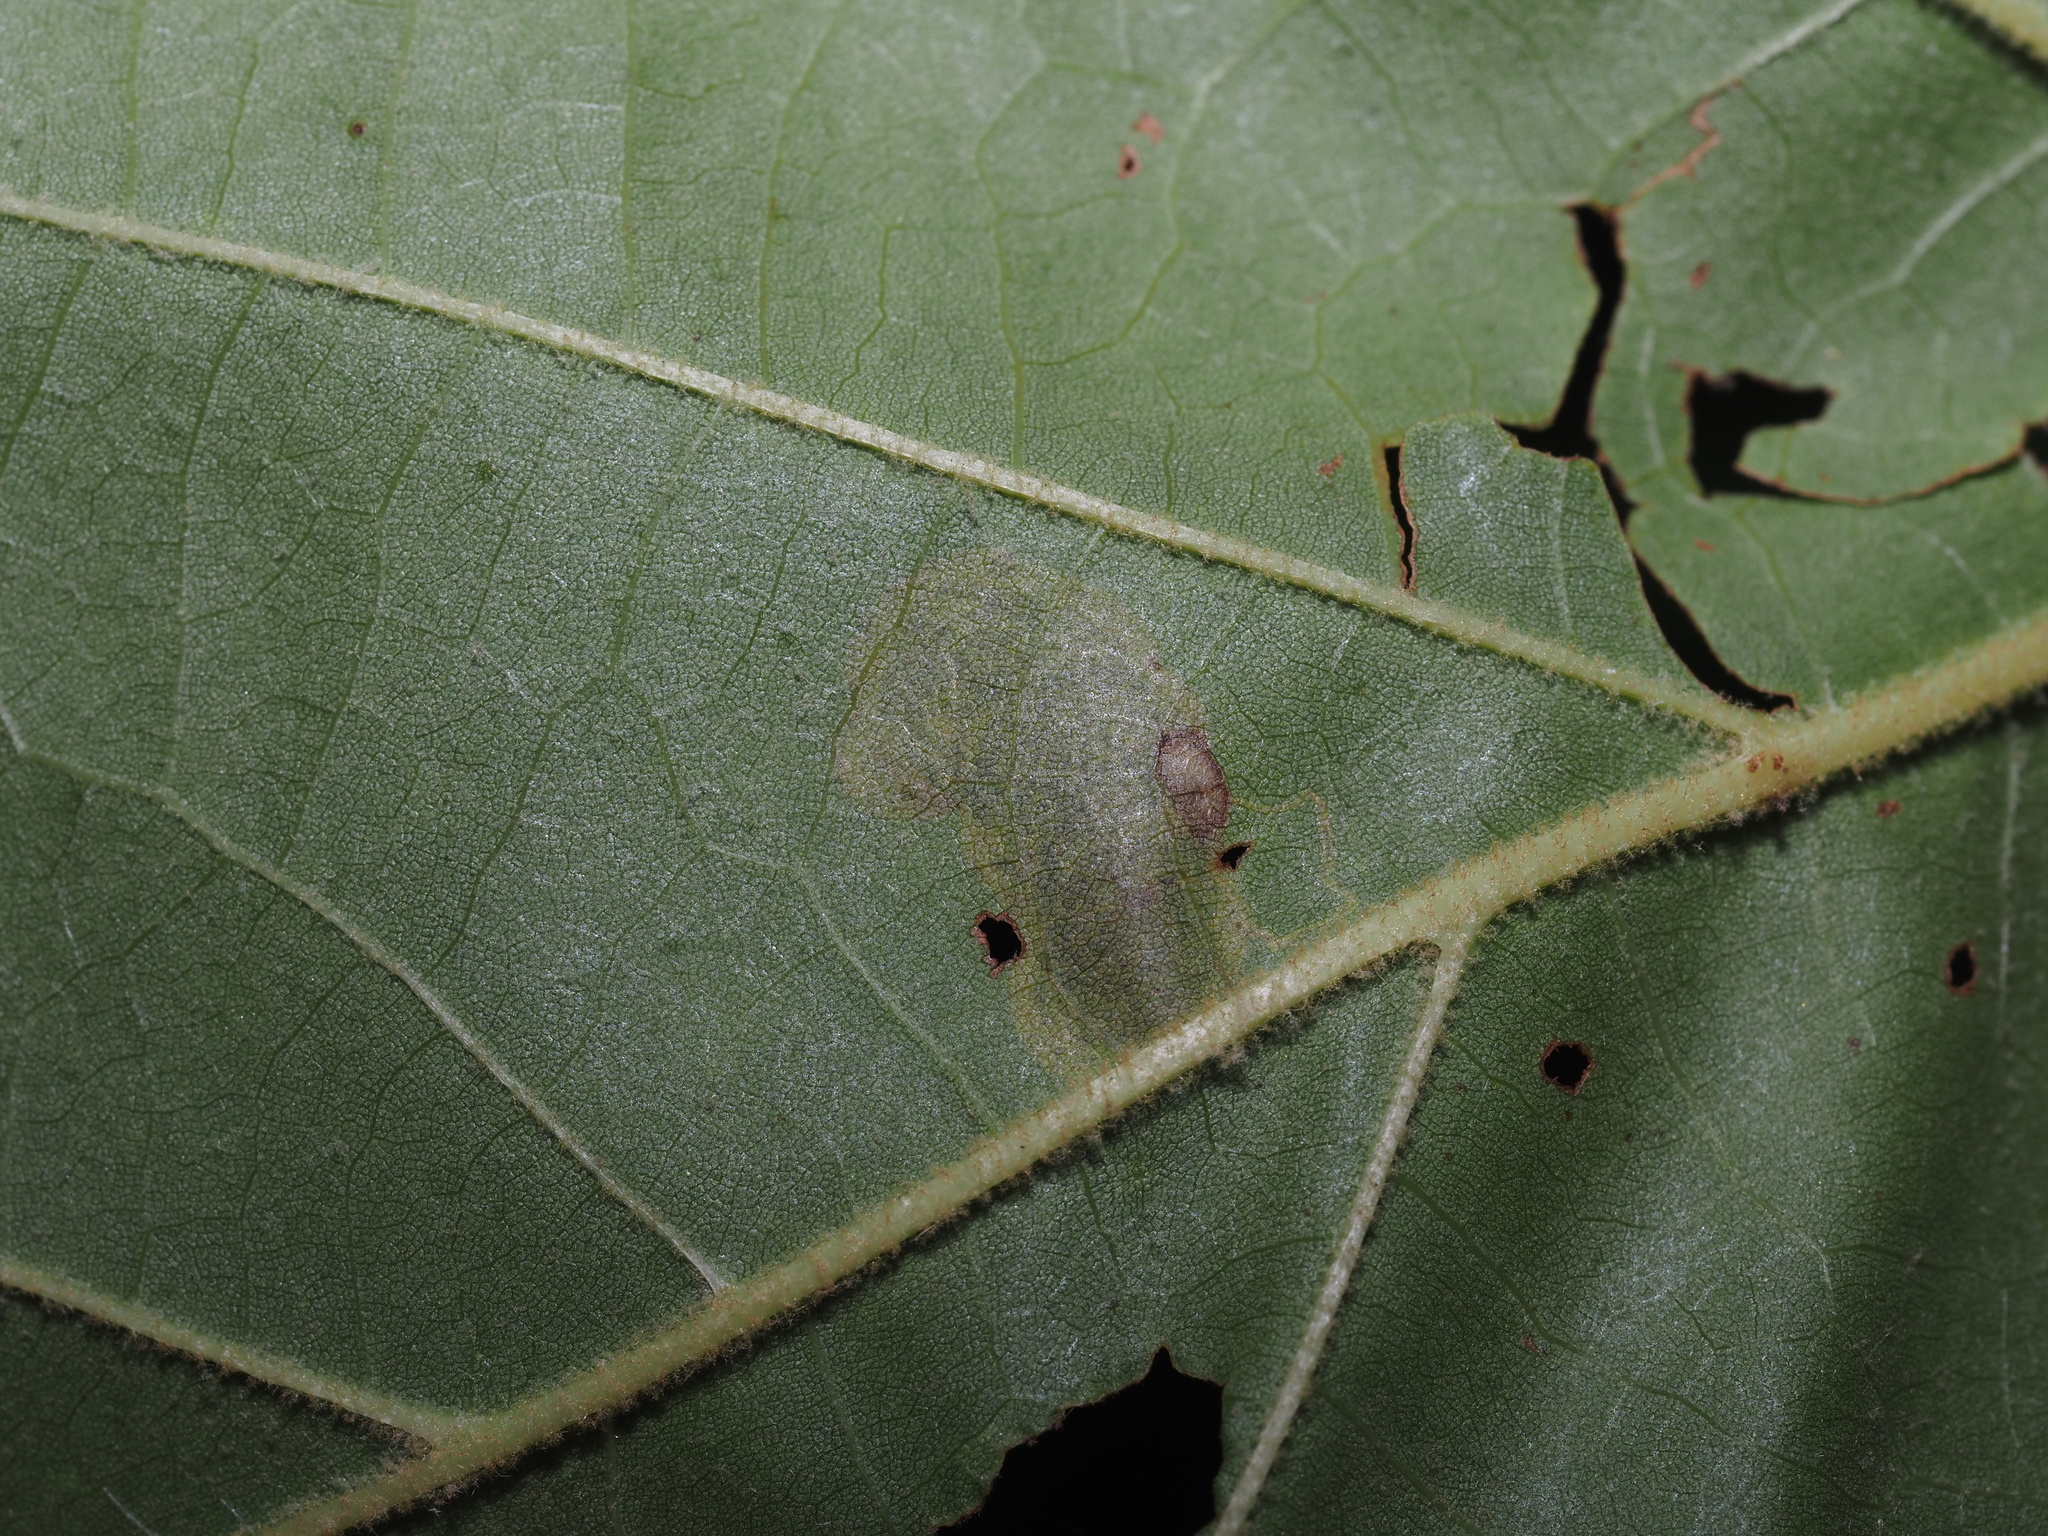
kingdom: Animalia
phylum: Arthropoda
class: Insecta
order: Lepidoptera
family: Nepticulidae
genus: Ectoedemia
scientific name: Ectoedemia platanella
